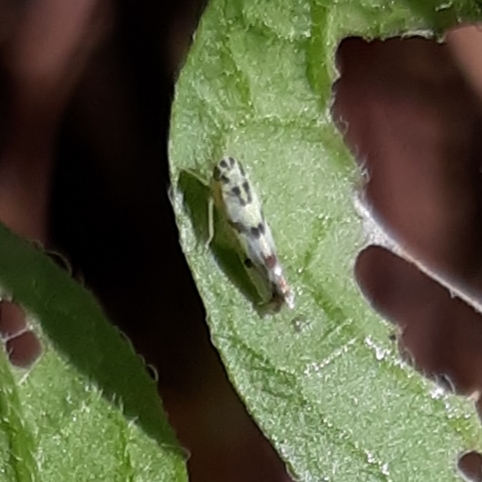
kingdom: Animalia
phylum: Arthropoda
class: Insecta
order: Hemiptera
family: Cicadellidae
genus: Eupteryx
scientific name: Eupteryx atropunctata
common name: Leafhopper
